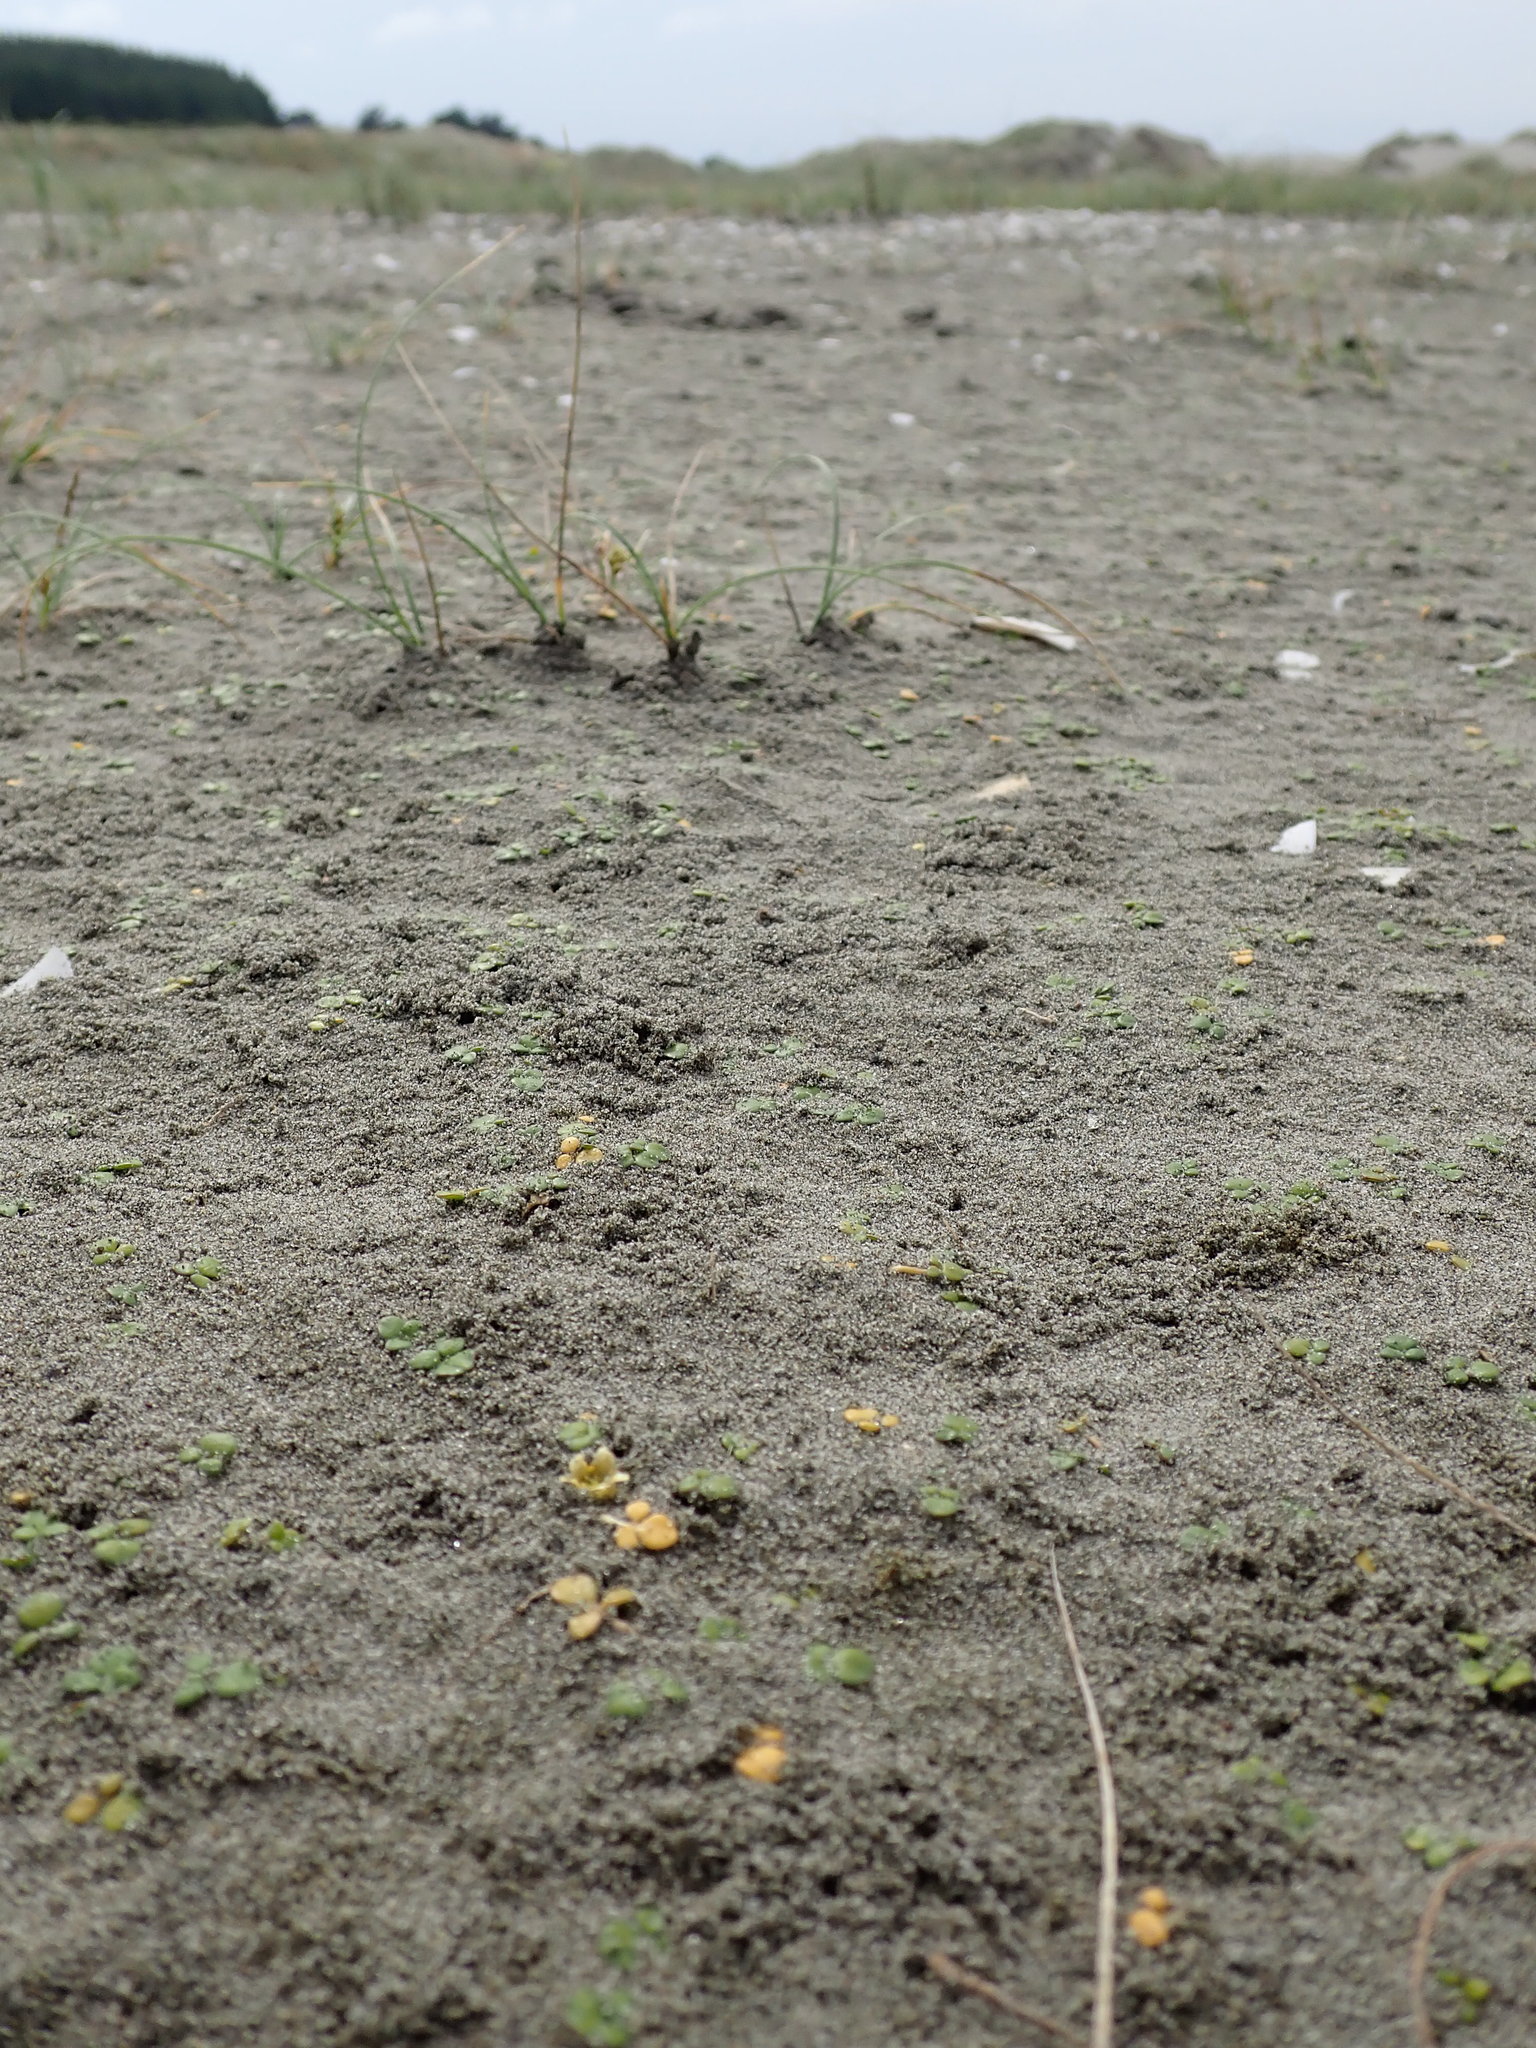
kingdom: Plantae
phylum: Tracheophyta
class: Magnoliopsida
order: Ranunculales
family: Ranunculaceae
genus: Ranunculus
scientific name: Ranunculus acaulis
